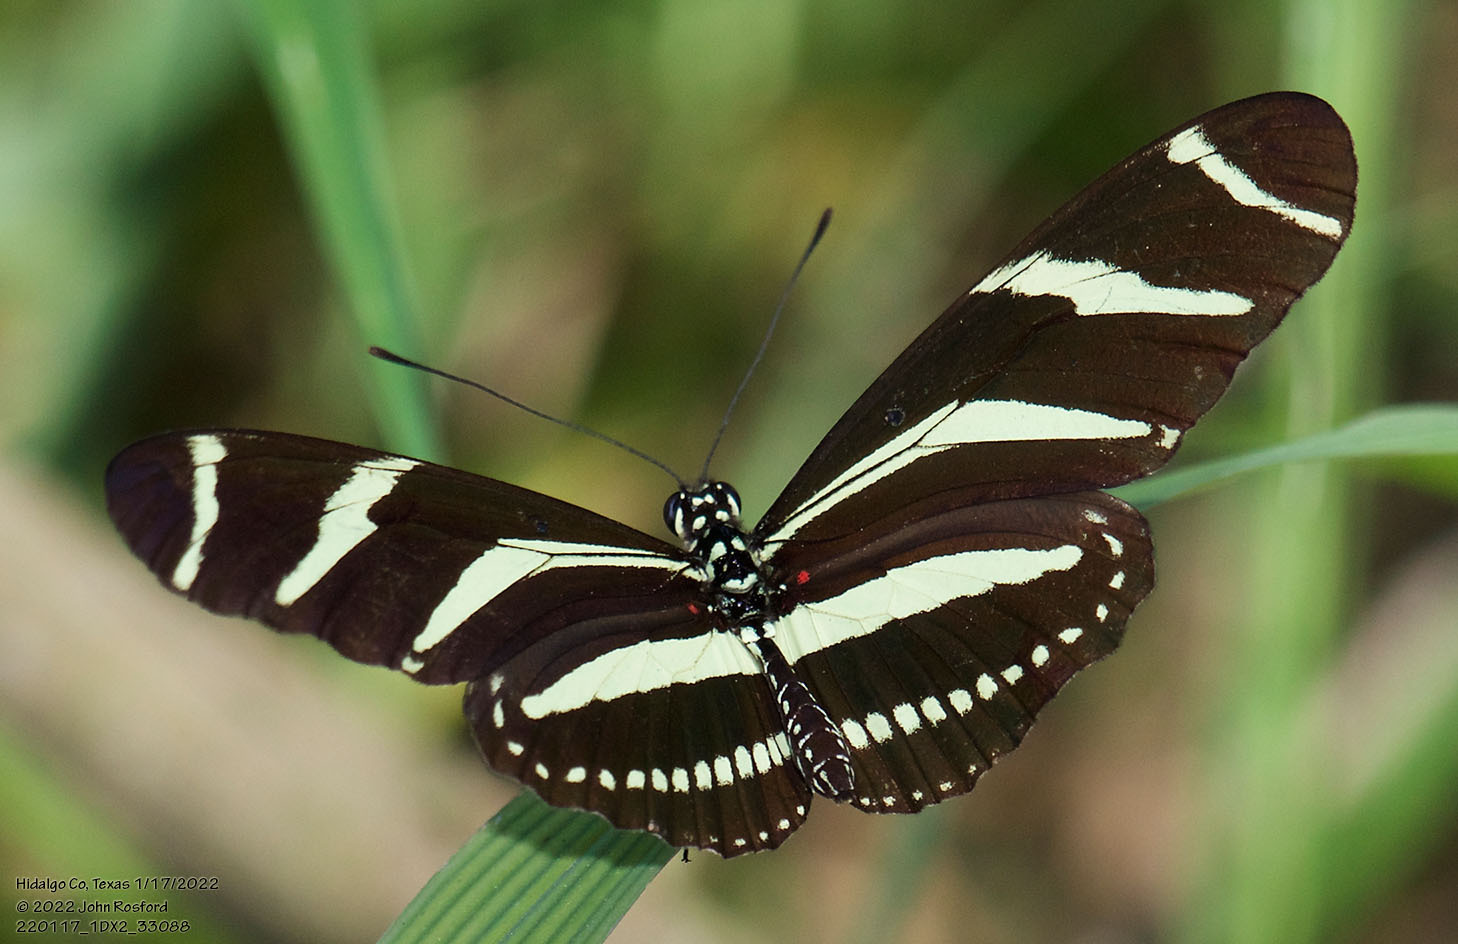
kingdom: Animalia
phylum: Arthropoda
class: Insecta
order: Lepidoptera
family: Nymphalidae
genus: Heliconius
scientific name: Heliconius charithonia
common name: Zebra long wing
